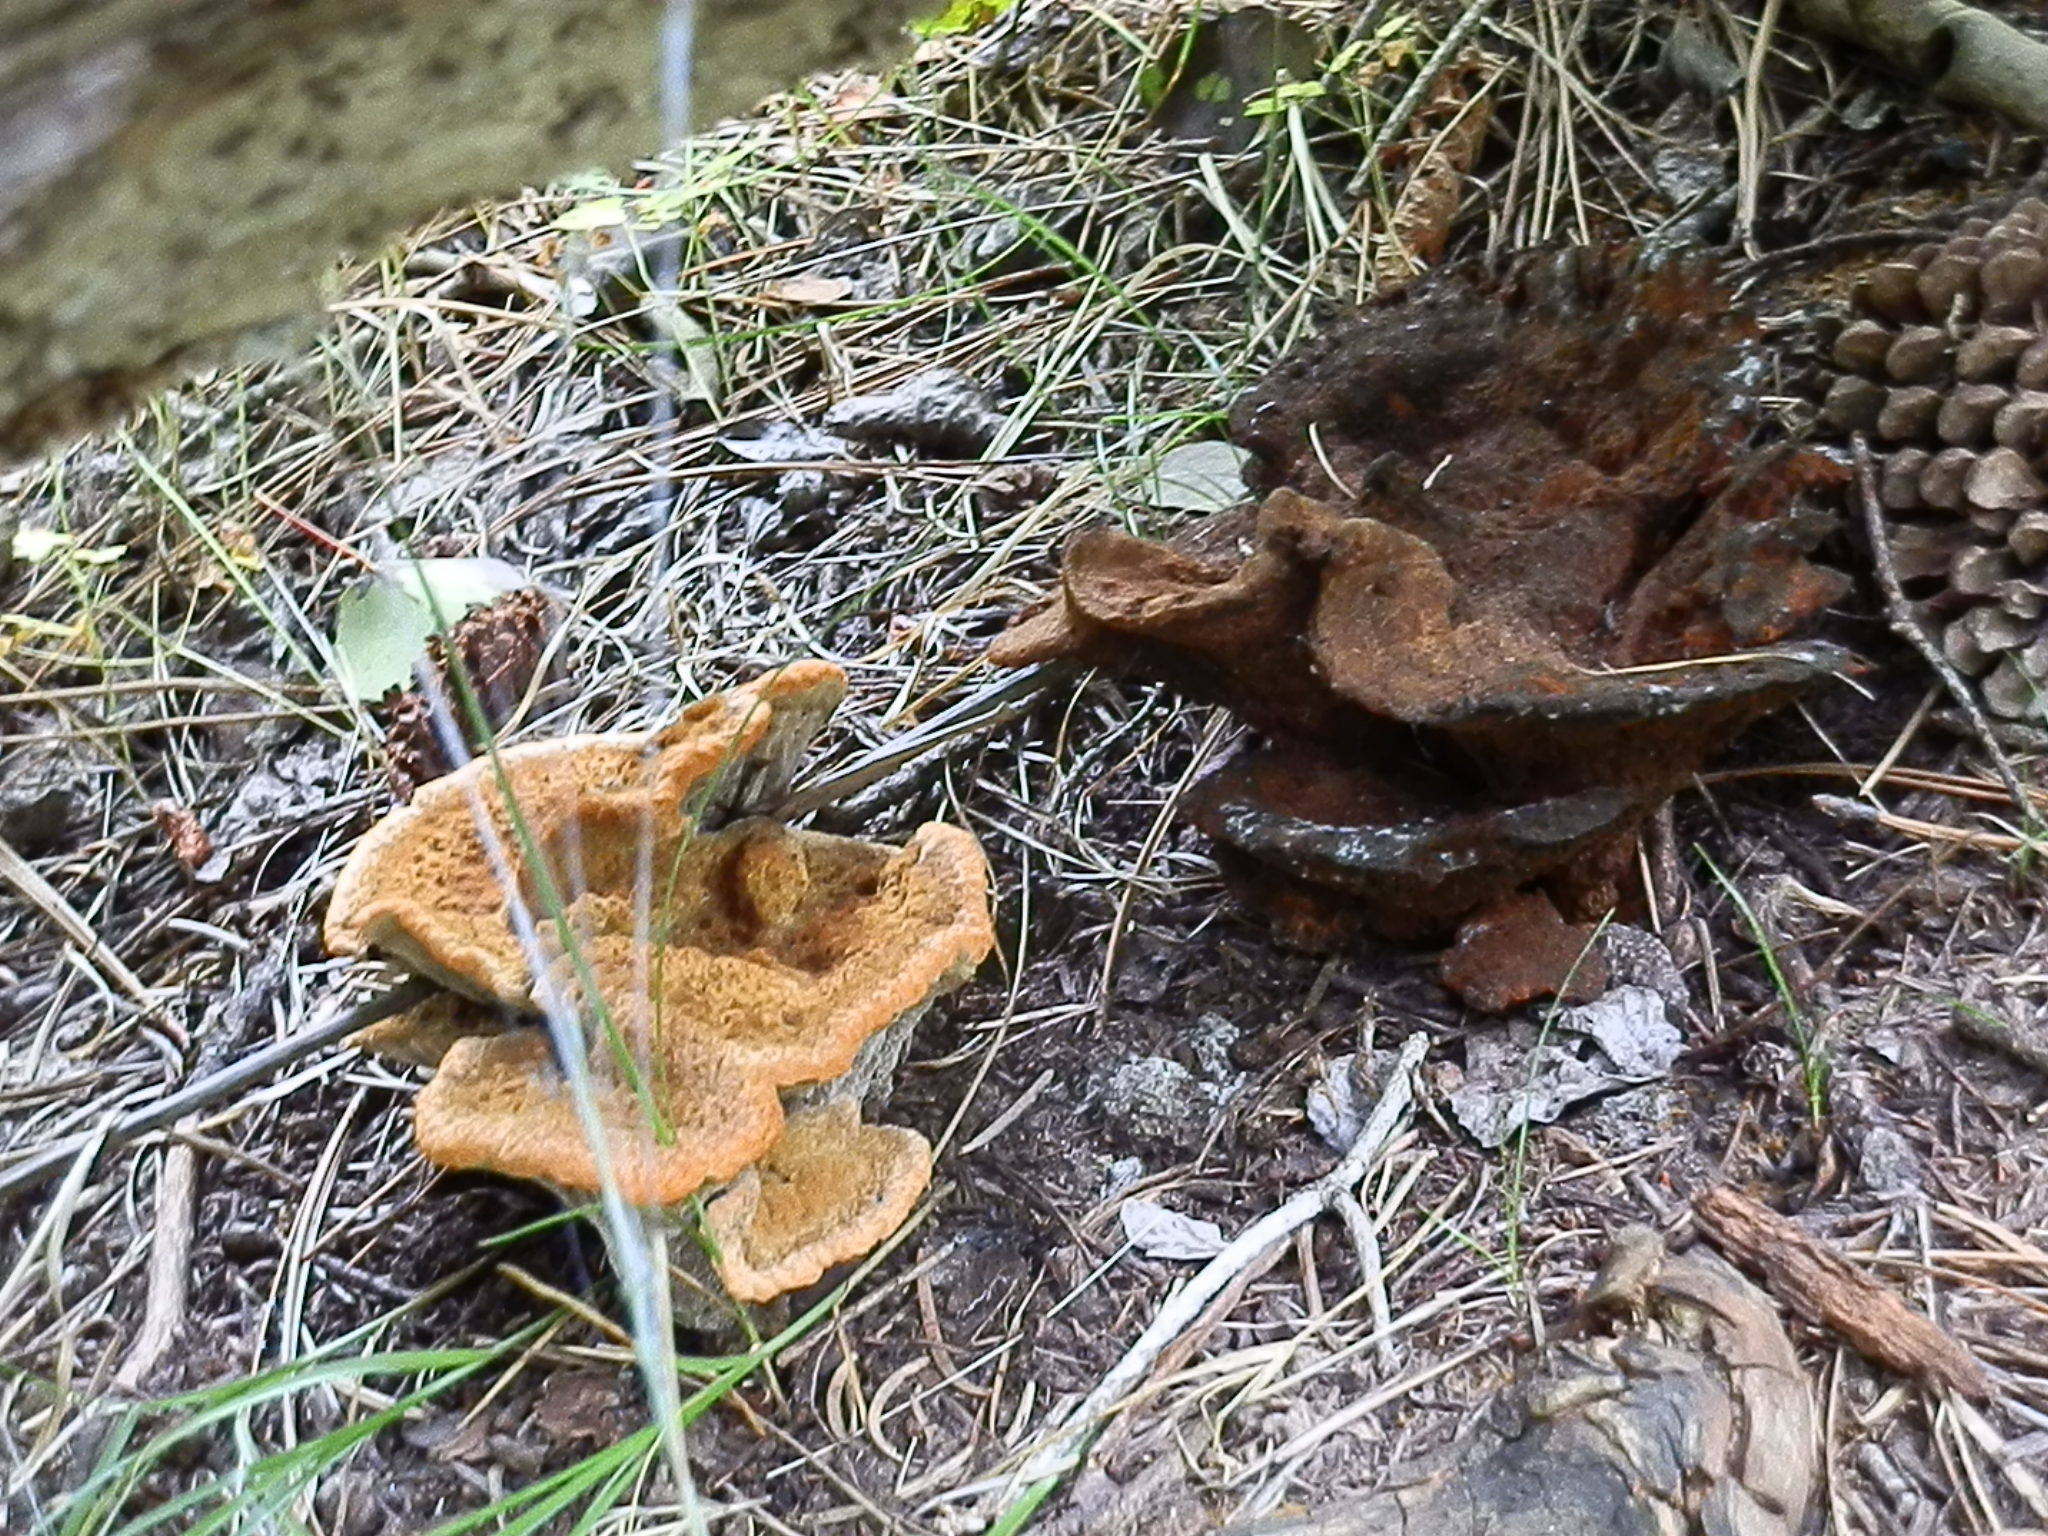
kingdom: Fungi
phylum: Basidiomycota
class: Agaricomycetes
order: Polyporales
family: Laetiporaceae
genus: Phaeolus
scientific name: Phaeolus schweinitzii
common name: Dyer's mazegill
